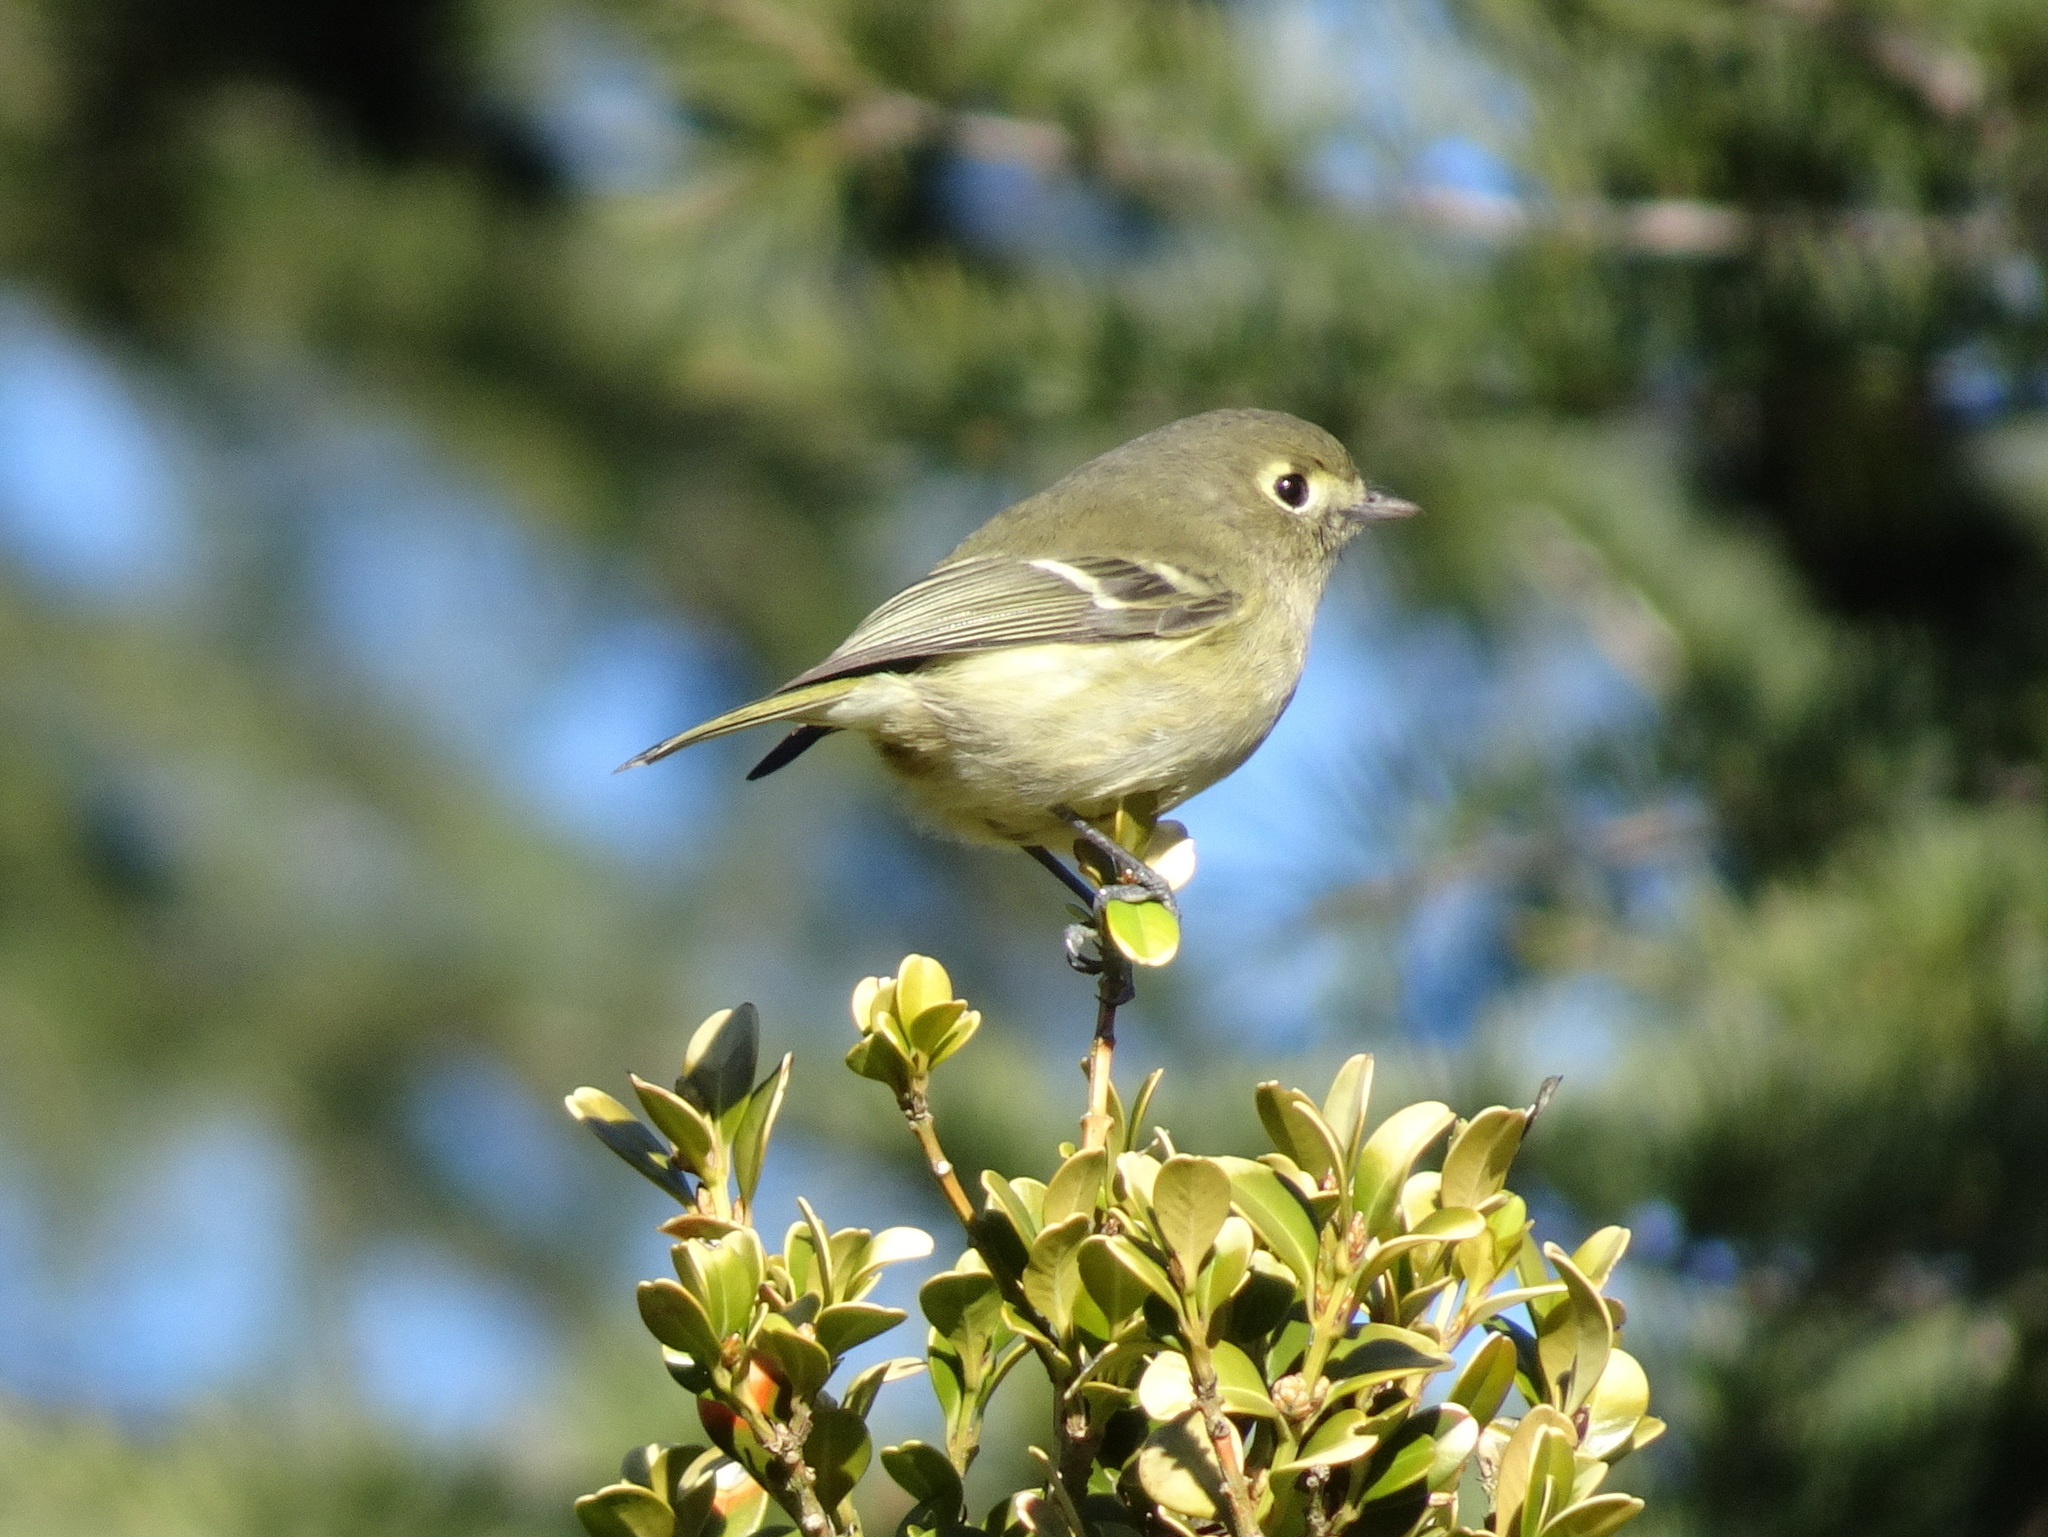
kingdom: Animalia
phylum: Chordata
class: Aves
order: Passeriformes
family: Vireonidae
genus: Vireo
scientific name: Vireo huttoni
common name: Hutton's vireo
